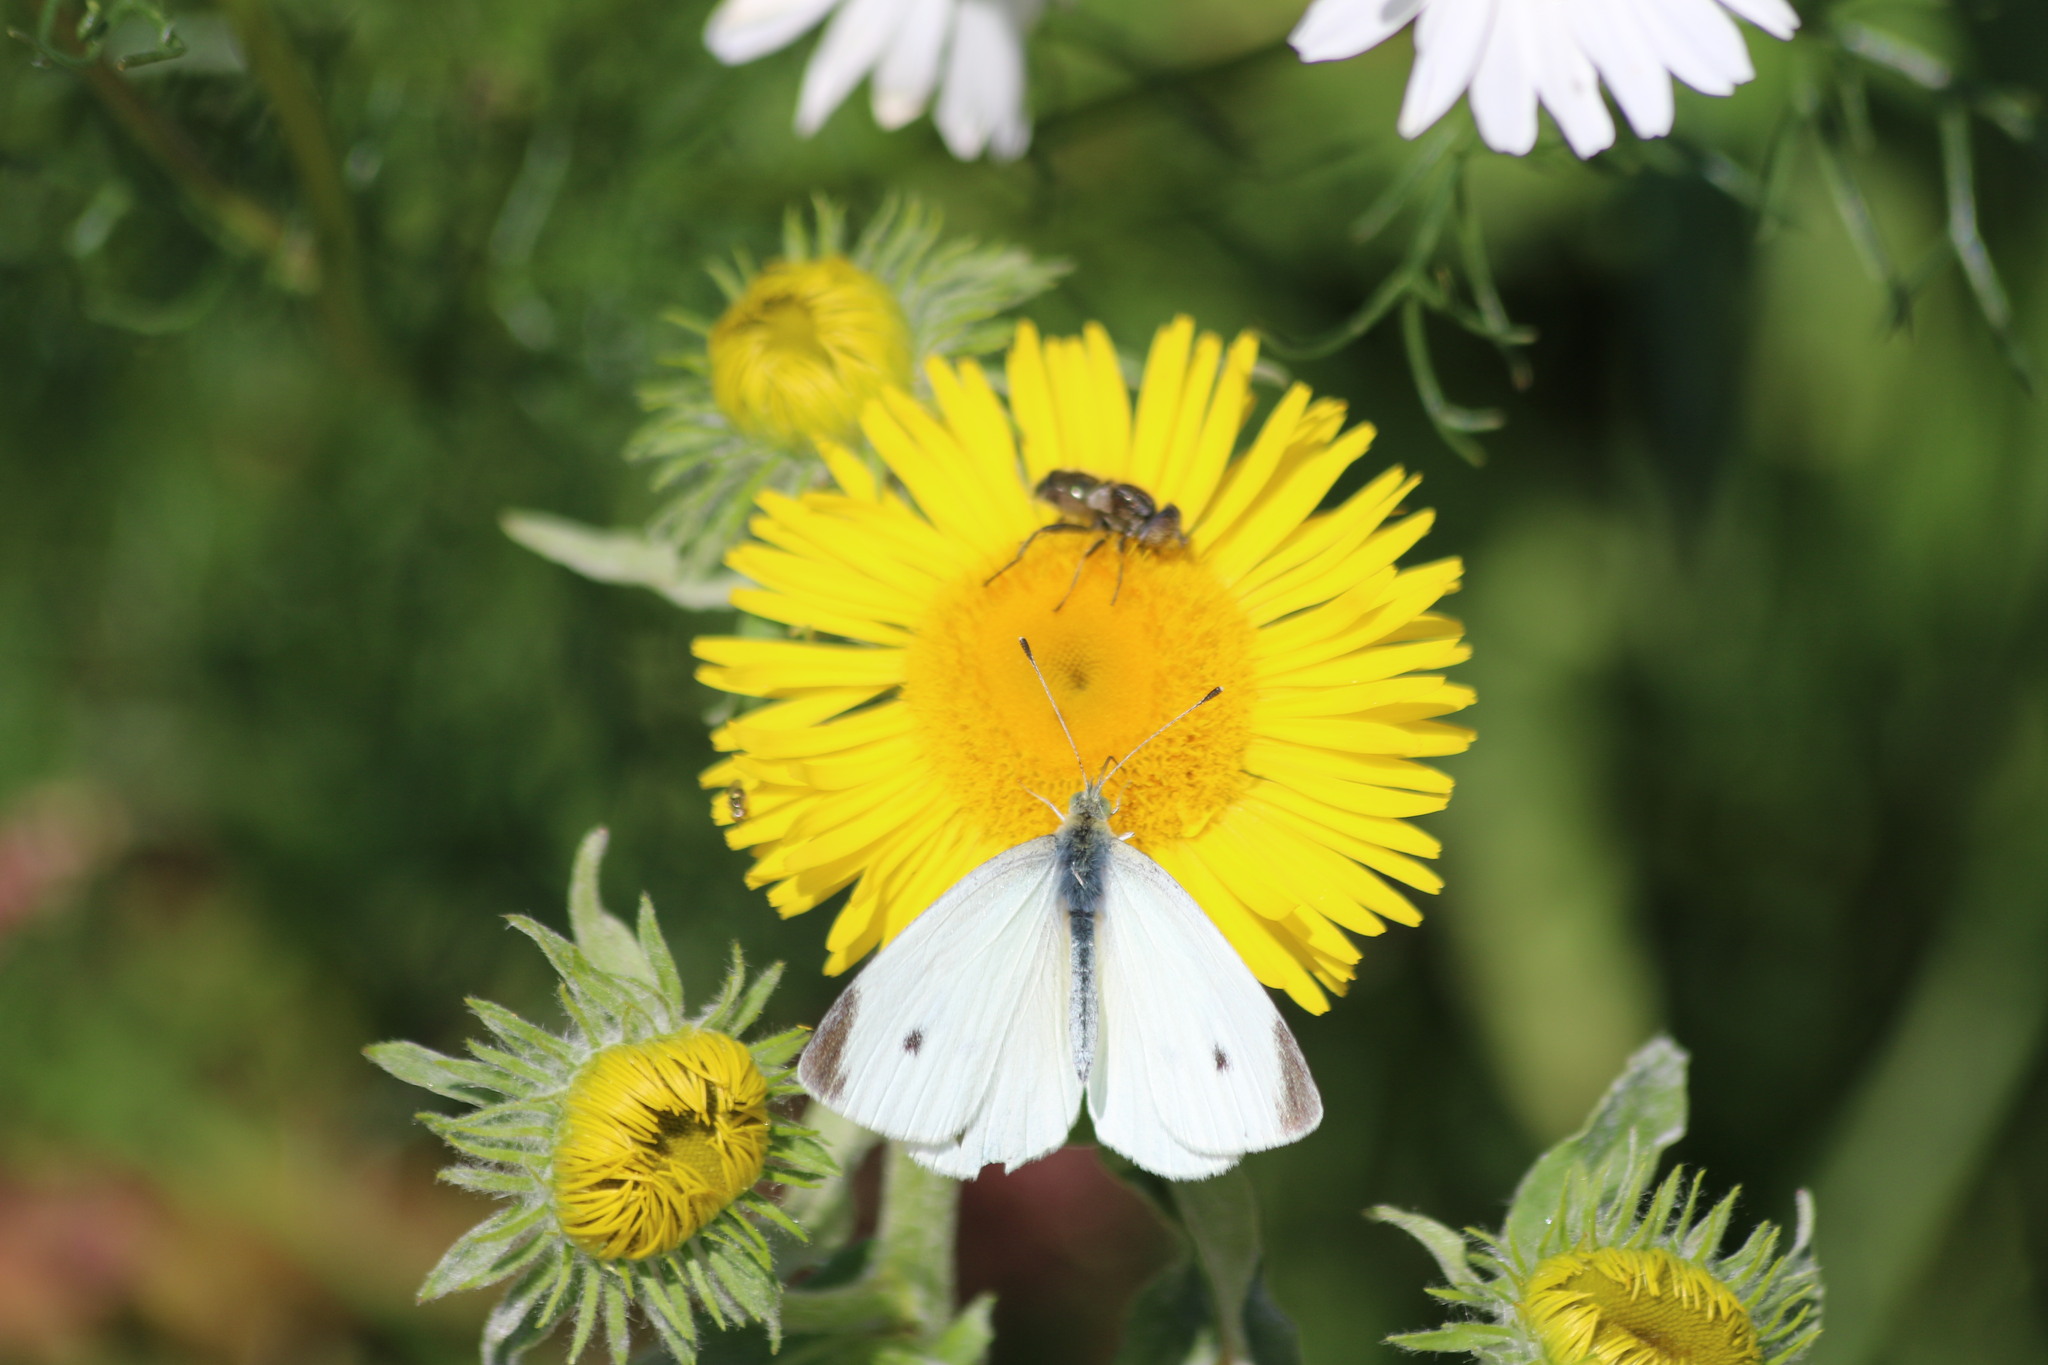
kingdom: Animalia
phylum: Arthropoda
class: Insecta
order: Lepidoptera
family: Pieridae
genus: Pieris
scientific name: Pieris rapae
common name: Small white
